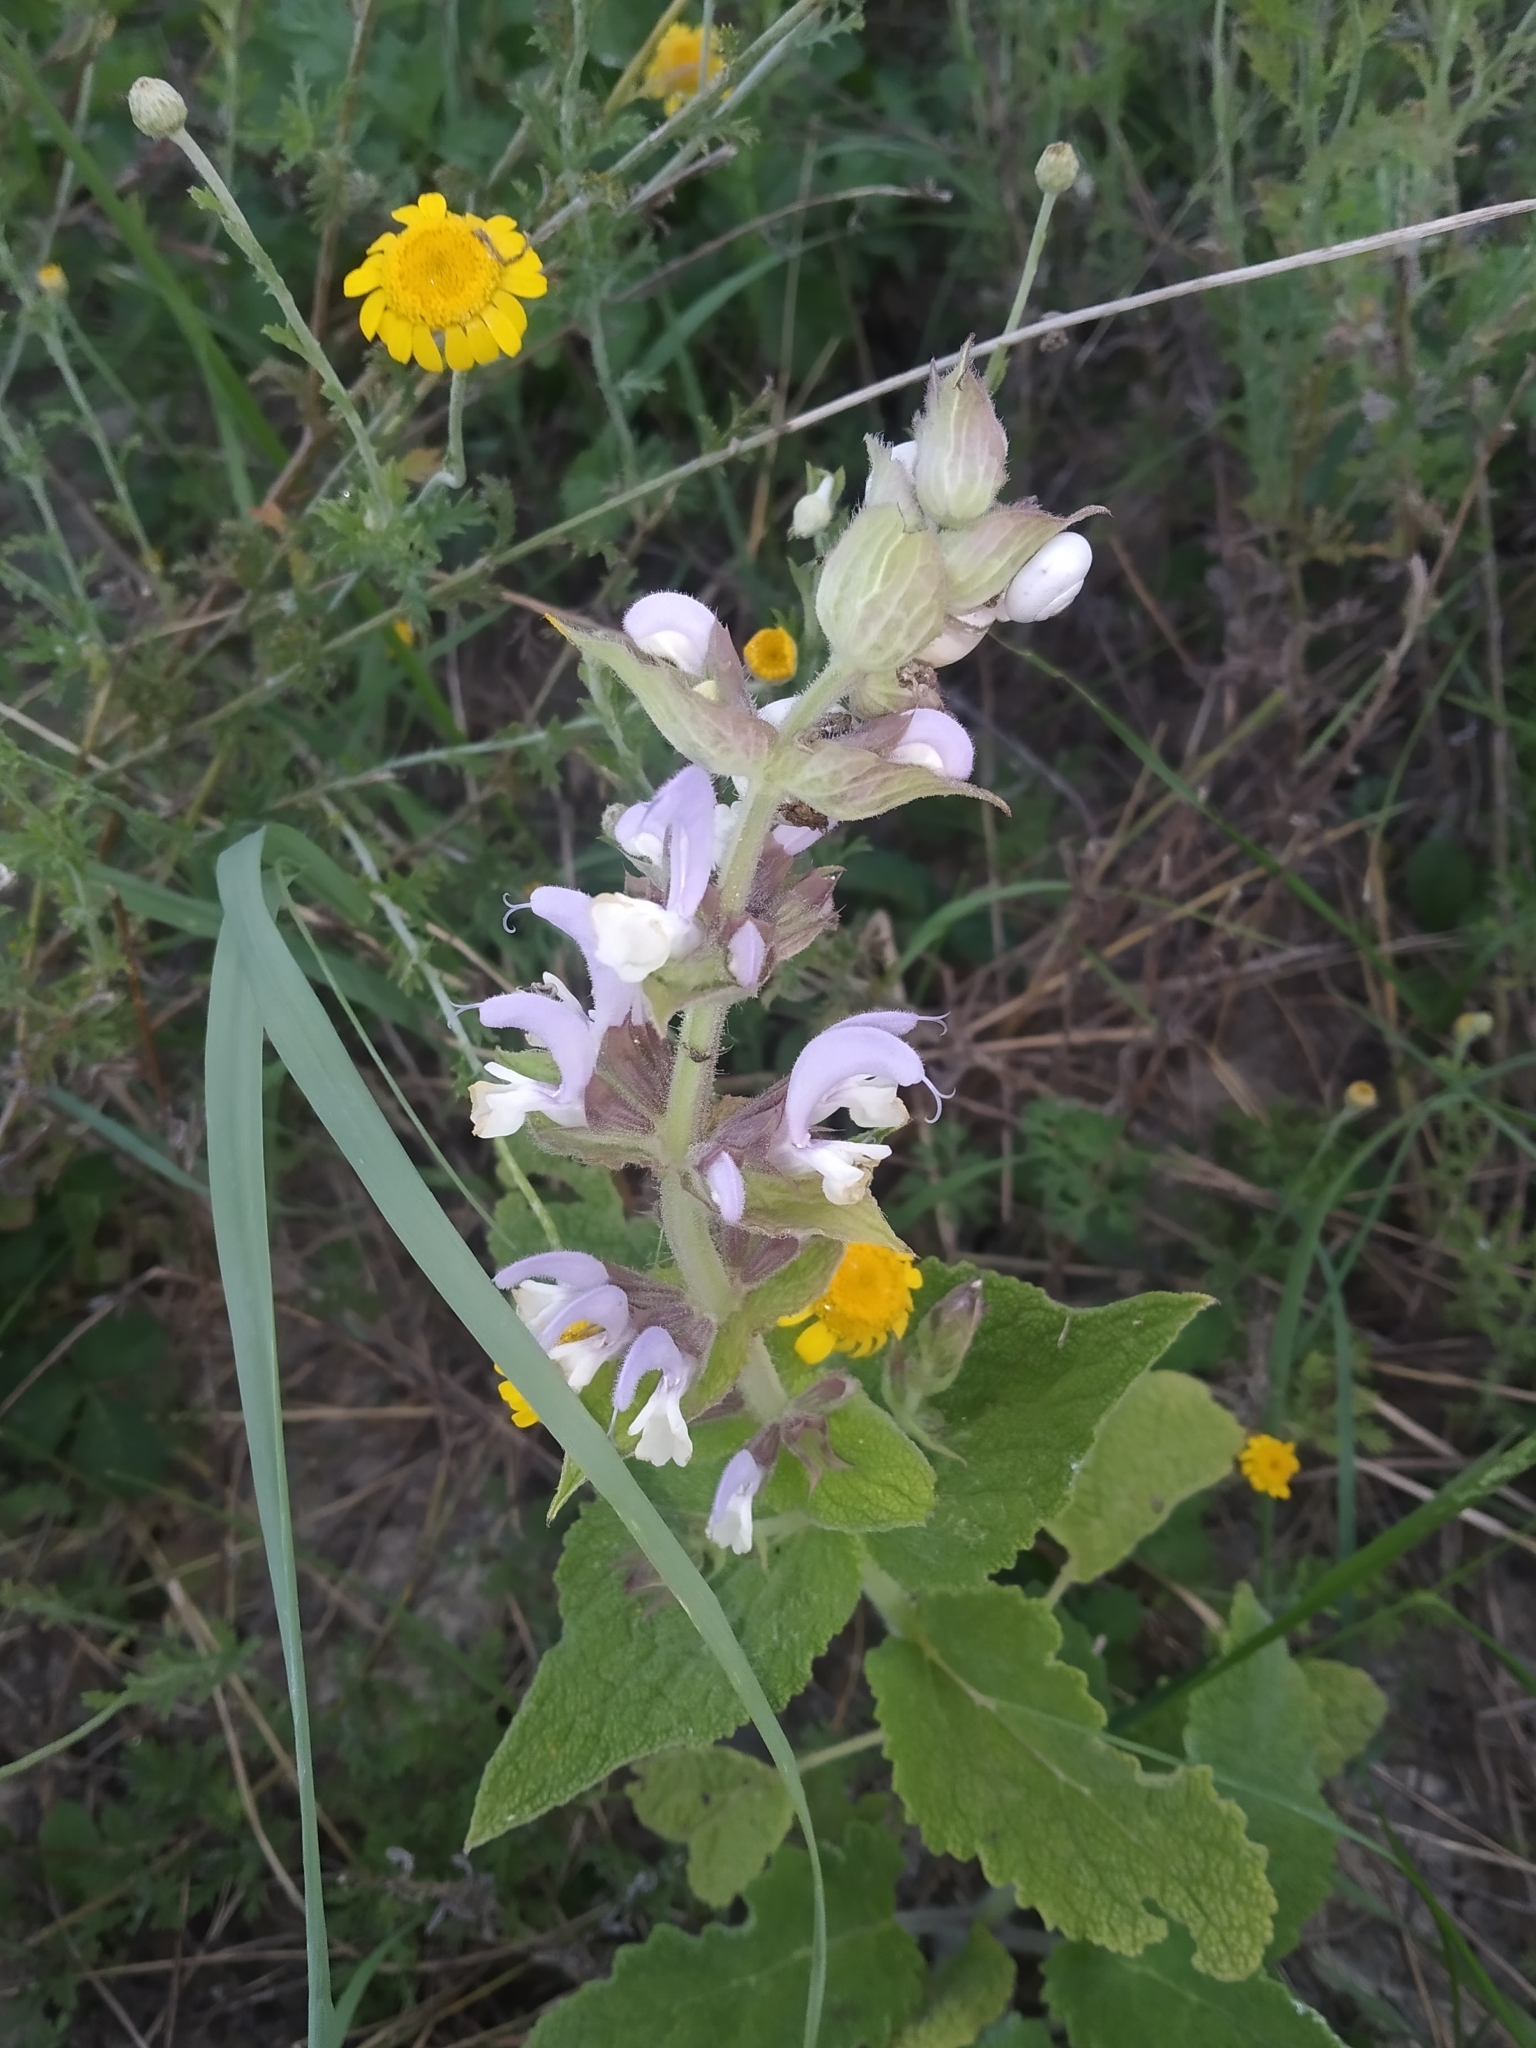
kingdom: Plantae
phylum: Tracheophyta
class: Magnoliopsida
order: Lamiales
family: Lamiaceae
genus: Salvia
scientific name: Salvia sclarea
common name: Clary
